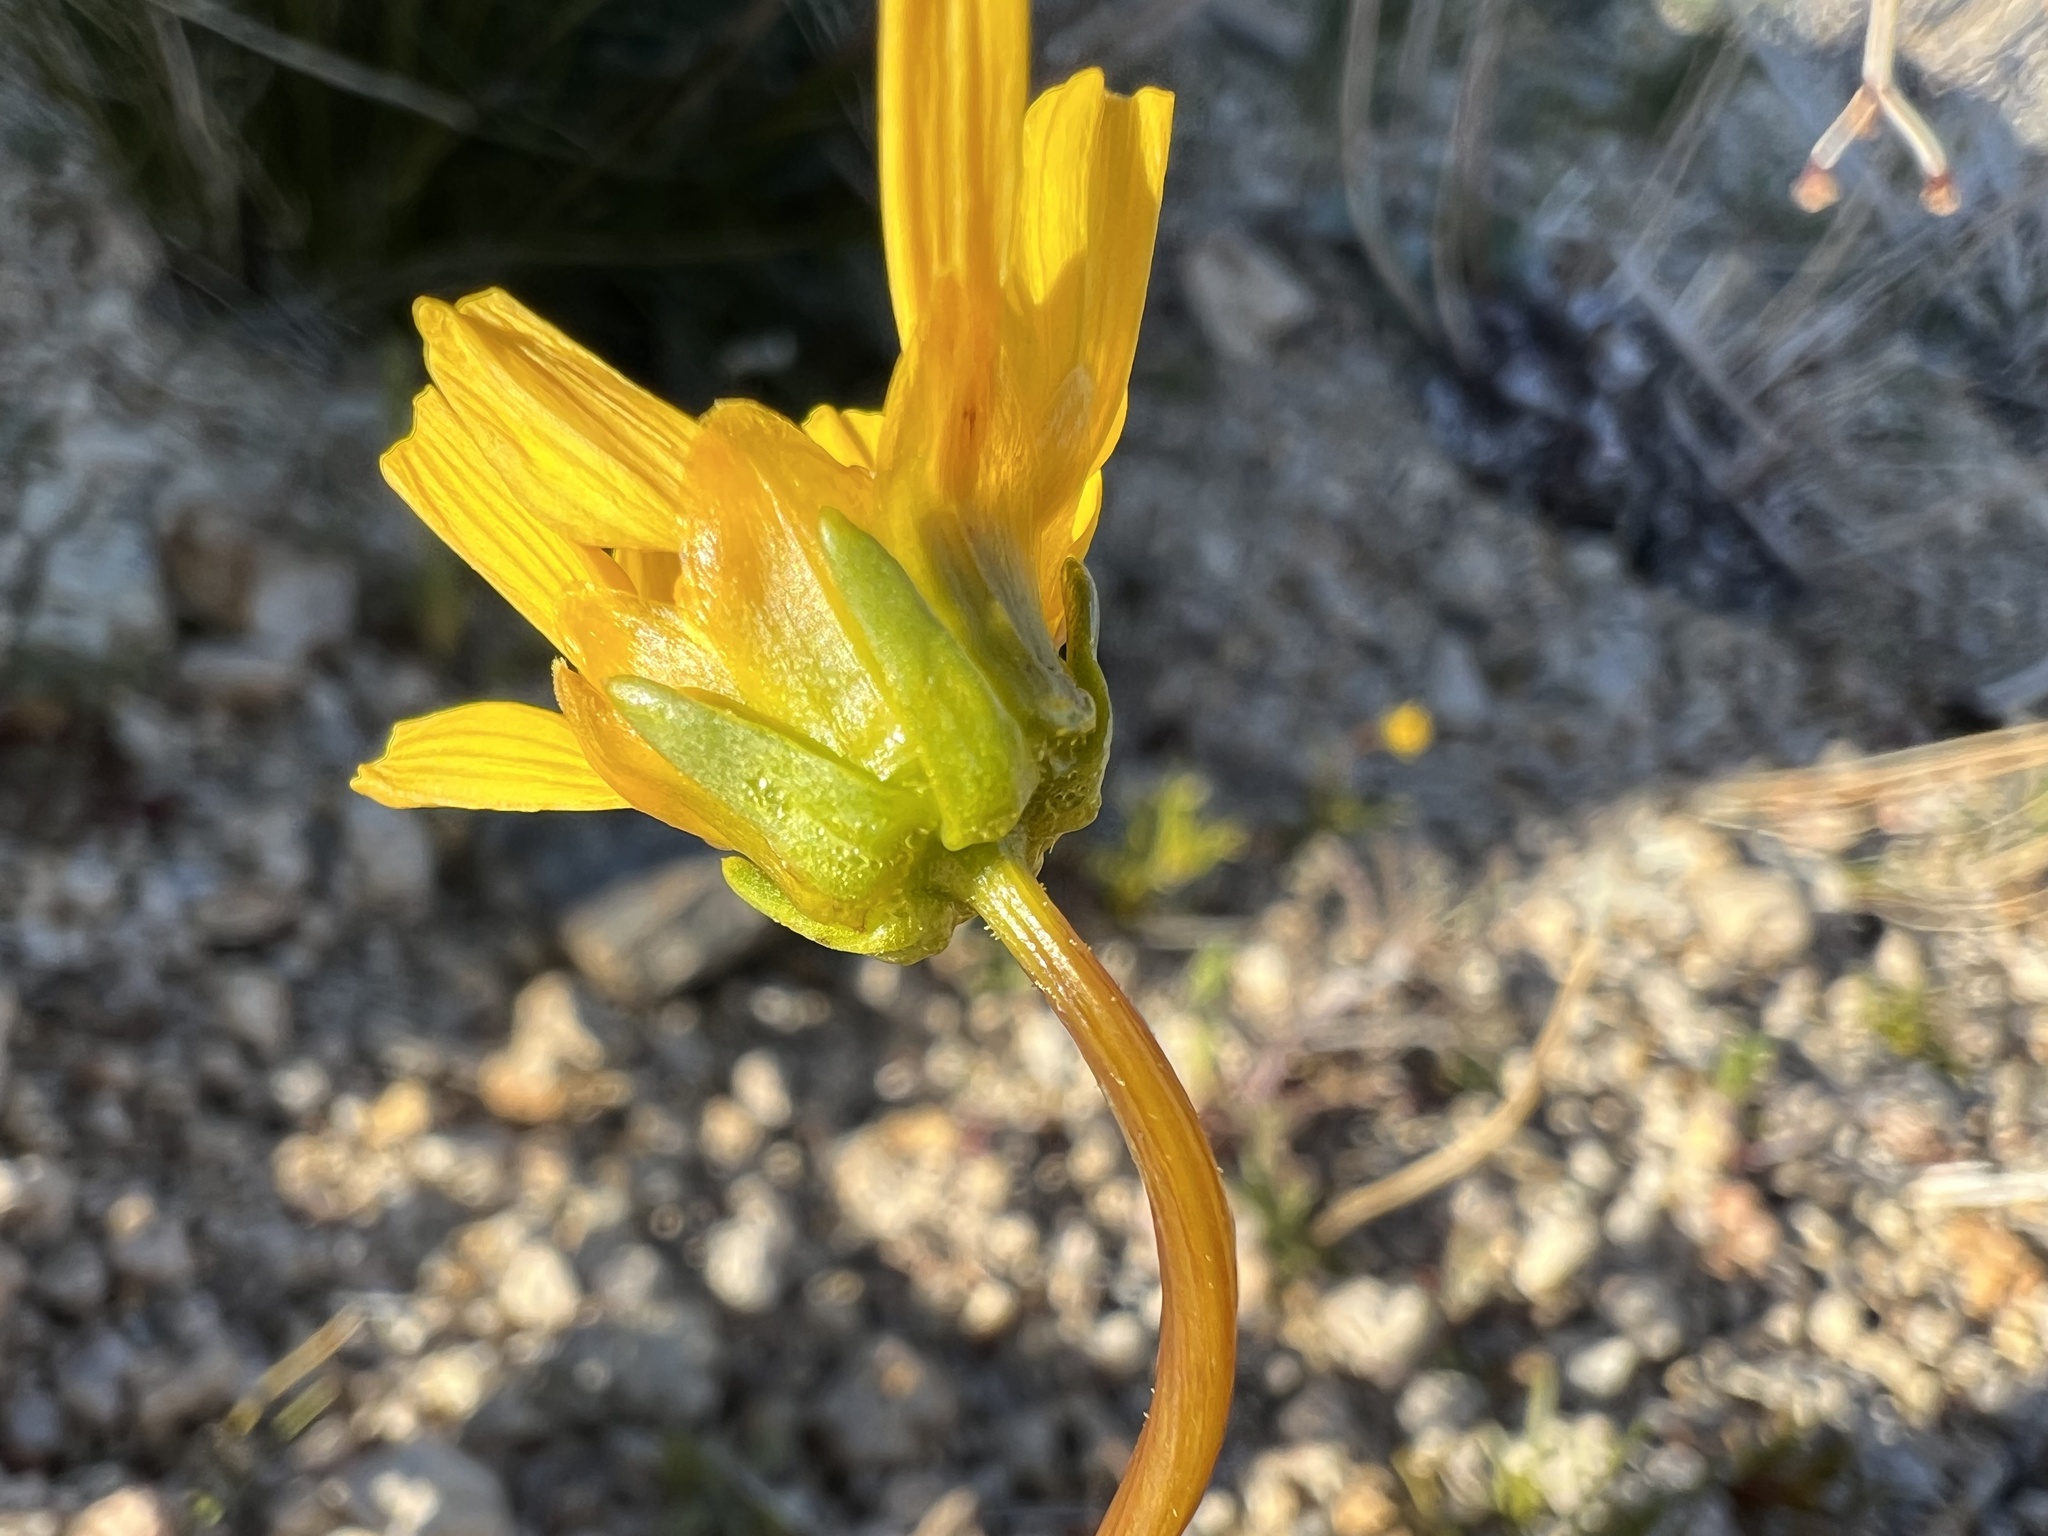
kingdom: Plantae
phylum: Tracheophyta
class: Magnoliopsida
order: Asterales
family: Asteraceae
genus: Coreopsis
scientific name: Coreopsis bigelovii
